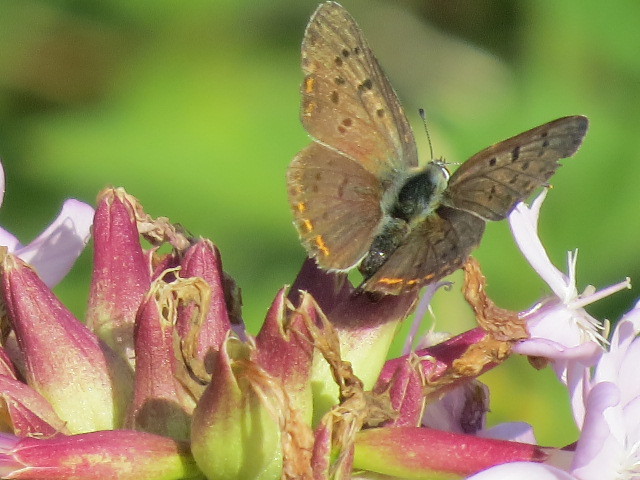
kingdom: Animalia
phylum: Arthropoda
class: Insecta
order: Lepidoptera
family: Lycaenidae
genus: Loweia
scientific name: Loweia tityrus
